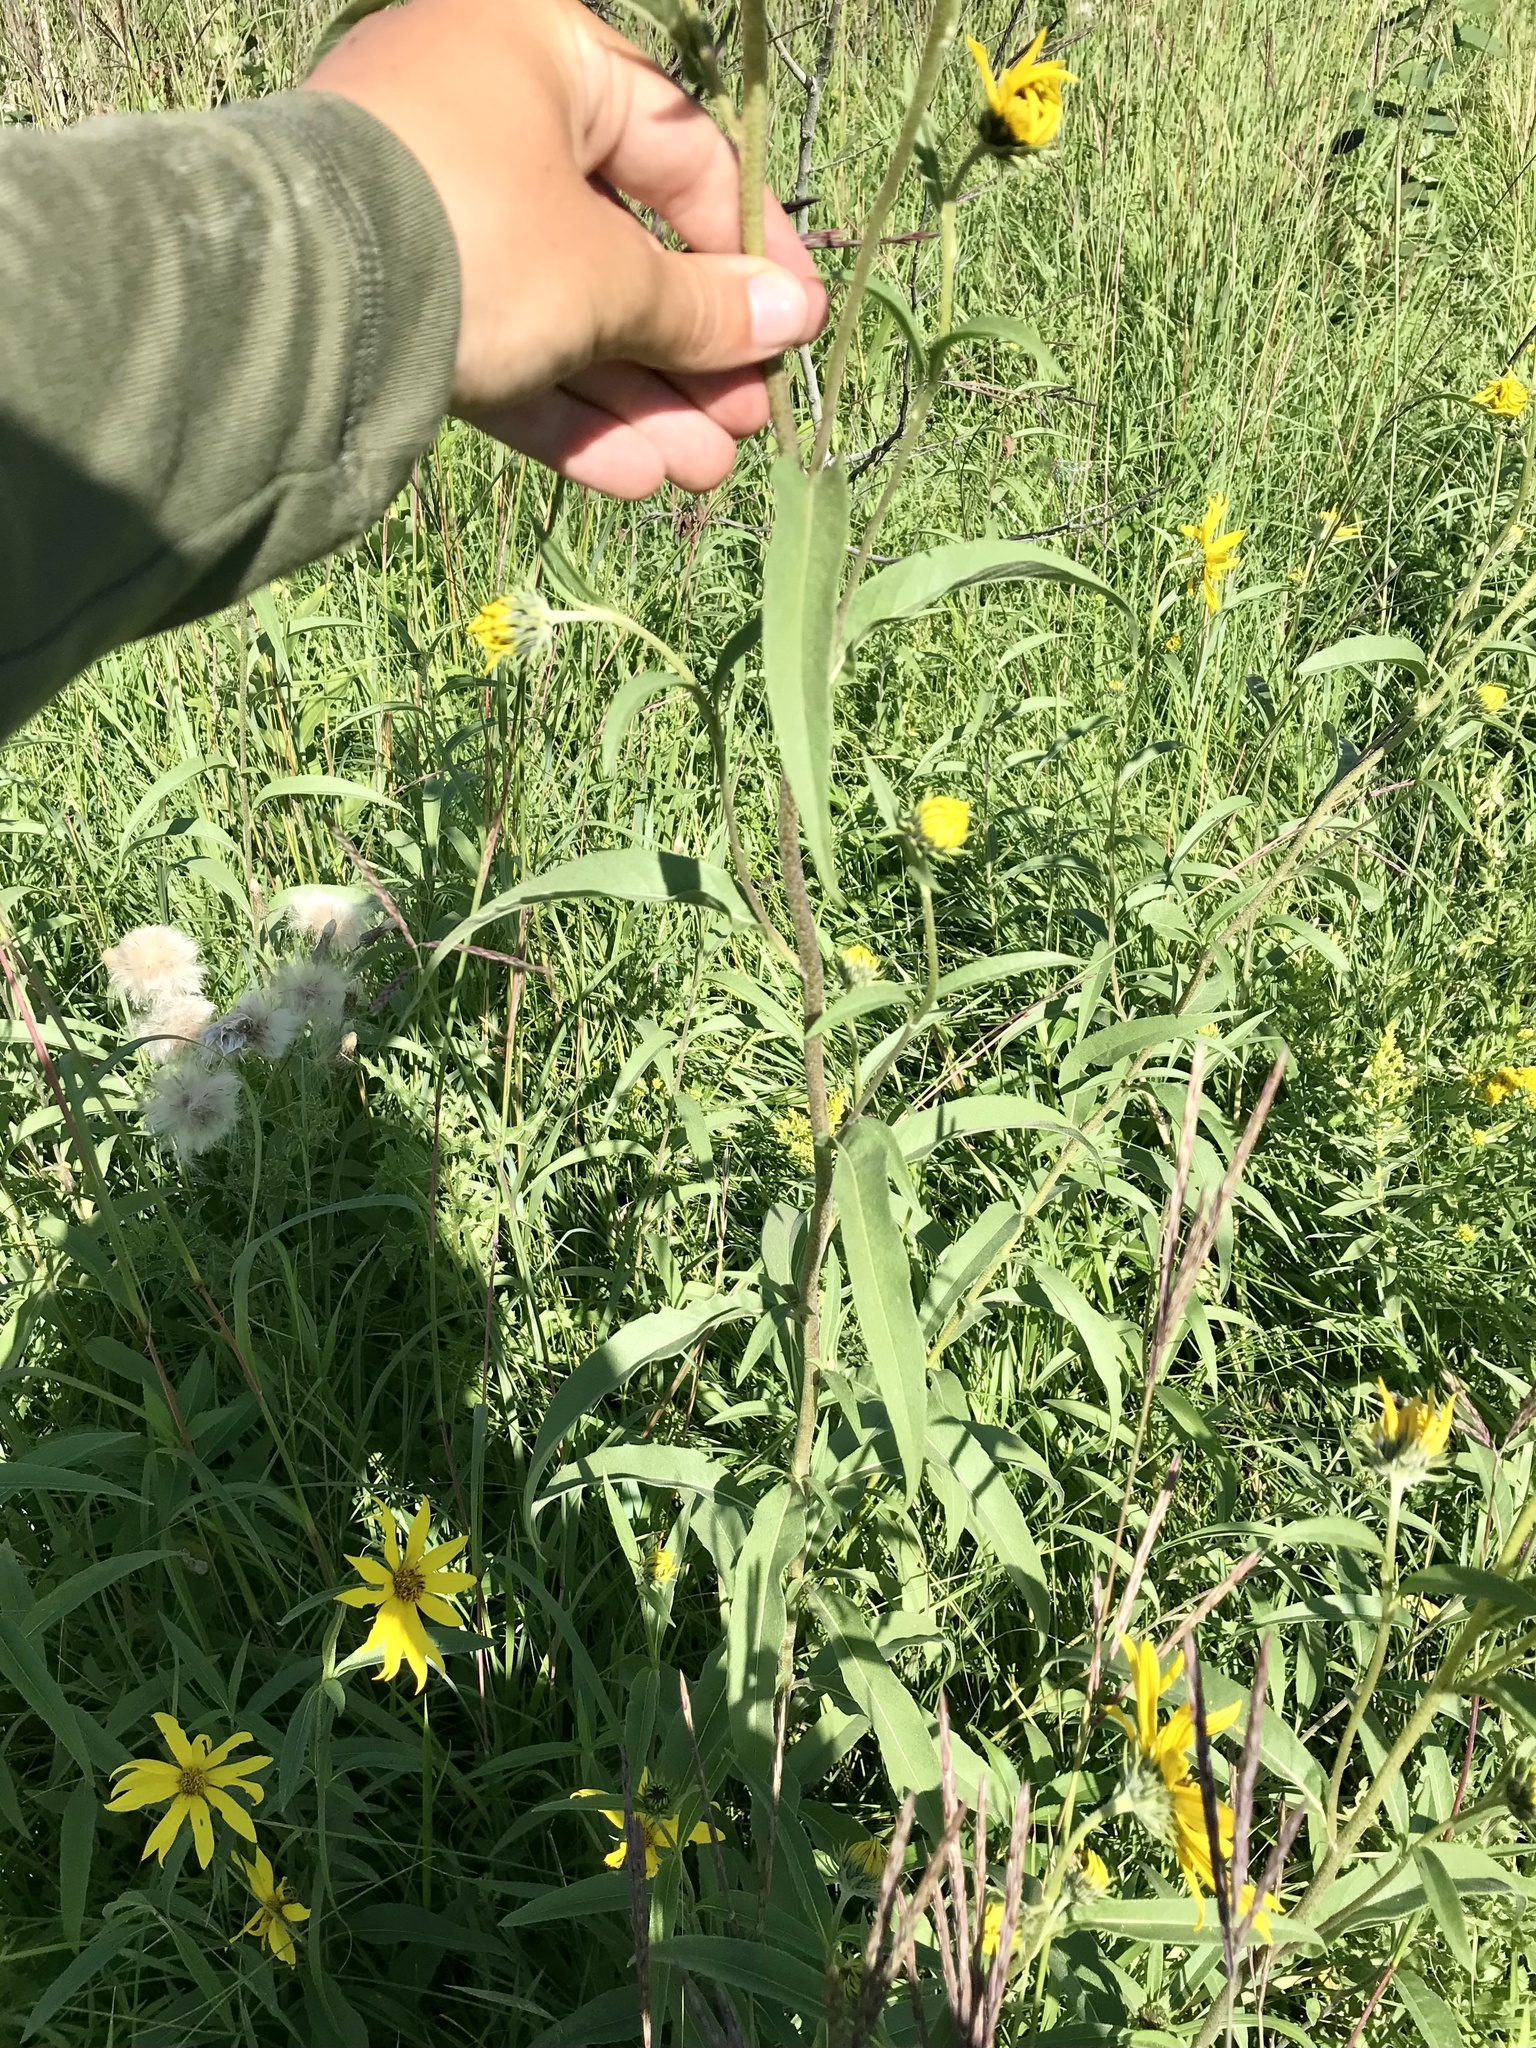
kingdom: Plantae
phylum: Tracheophyta
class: Magnoliopsida
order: Asterales
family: Asteraceae
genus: Helianthus
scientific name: Helianthus maximiliani
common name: Maximilian's sunflower
